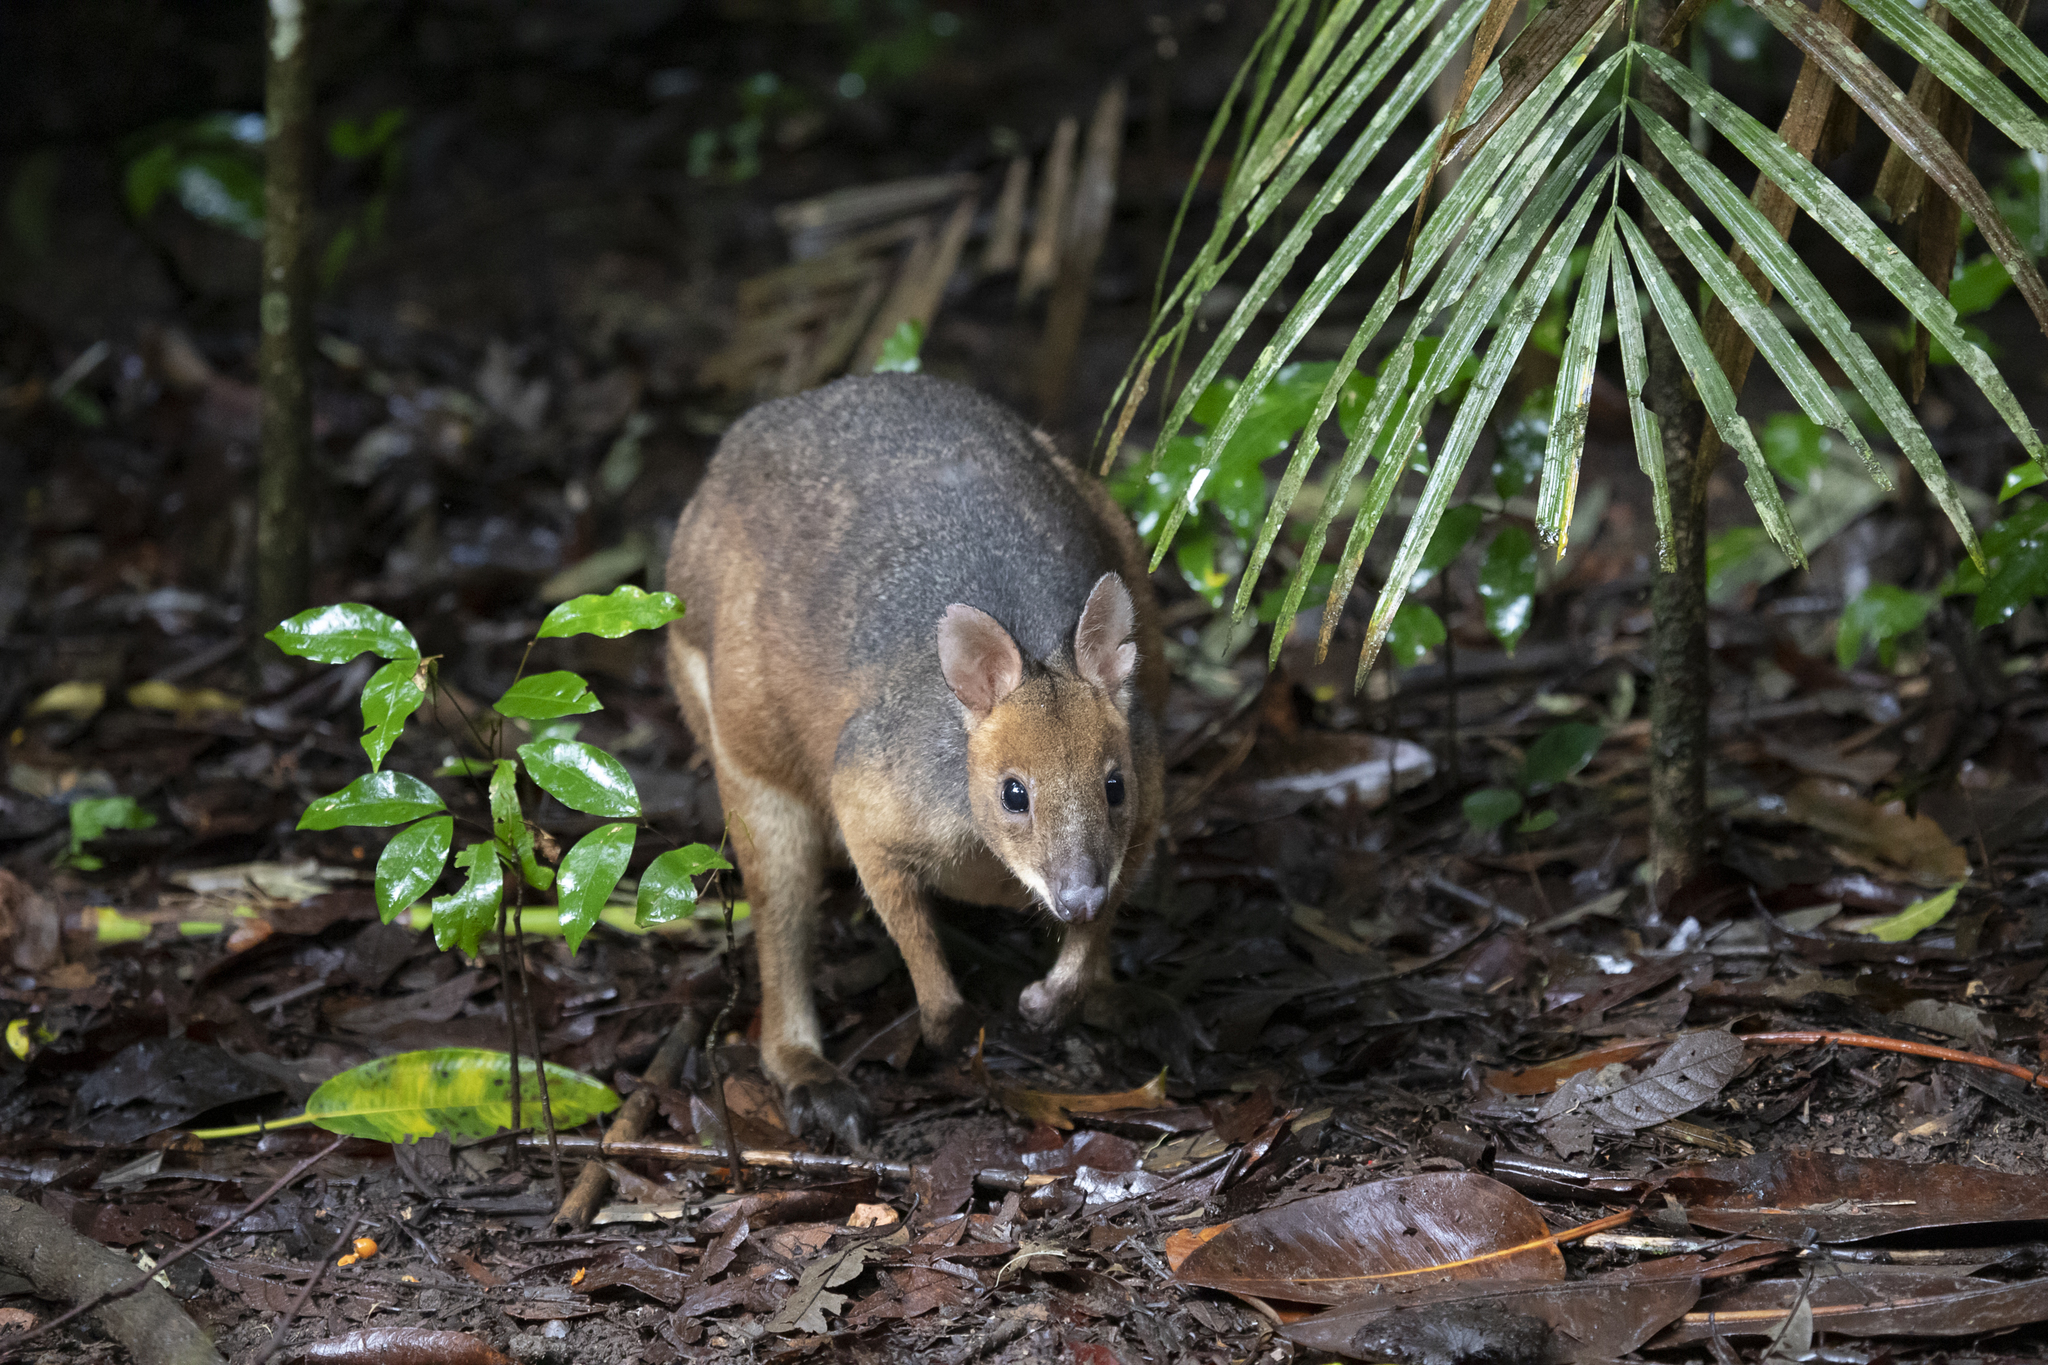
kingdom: Animalia
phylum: Chordata
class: Mammalia
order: Diprotodontia
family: Macropodidae
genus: Thylogale
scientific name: Thylogale stigmatica
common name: Red-legged pademelon
